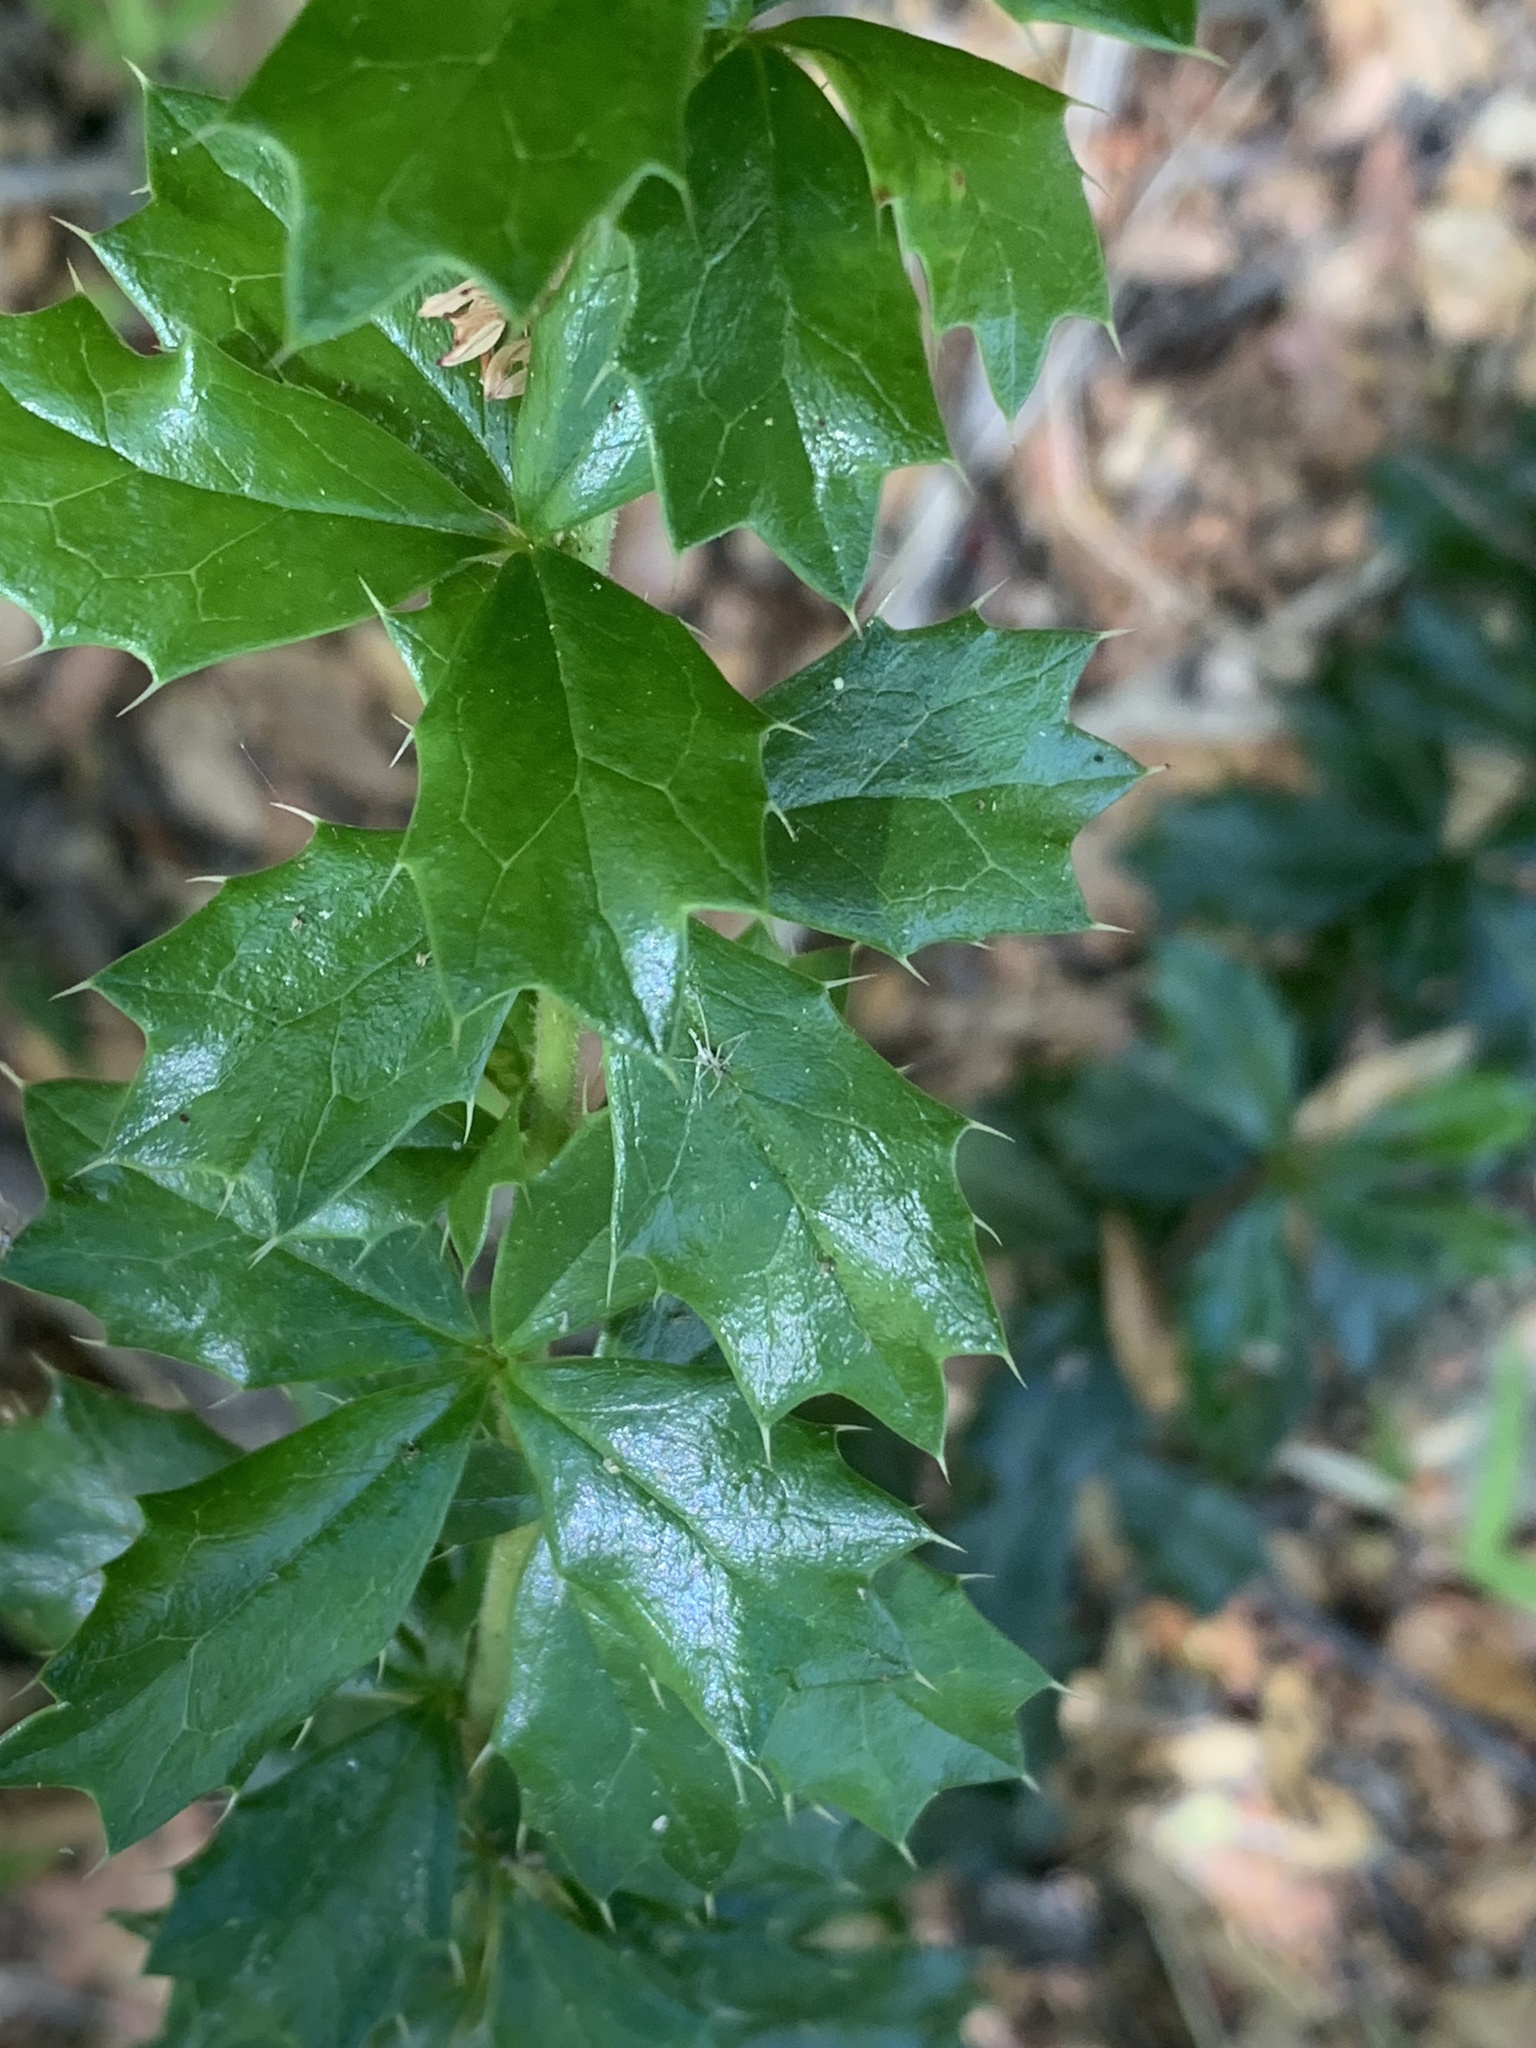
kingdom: Plantae
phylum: Tracheophyta
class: Magnoliopsida
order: Ranunculales
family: Berberidaceae
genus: Berberis
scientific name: Berberis darwinii
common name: Darwin's barberry
